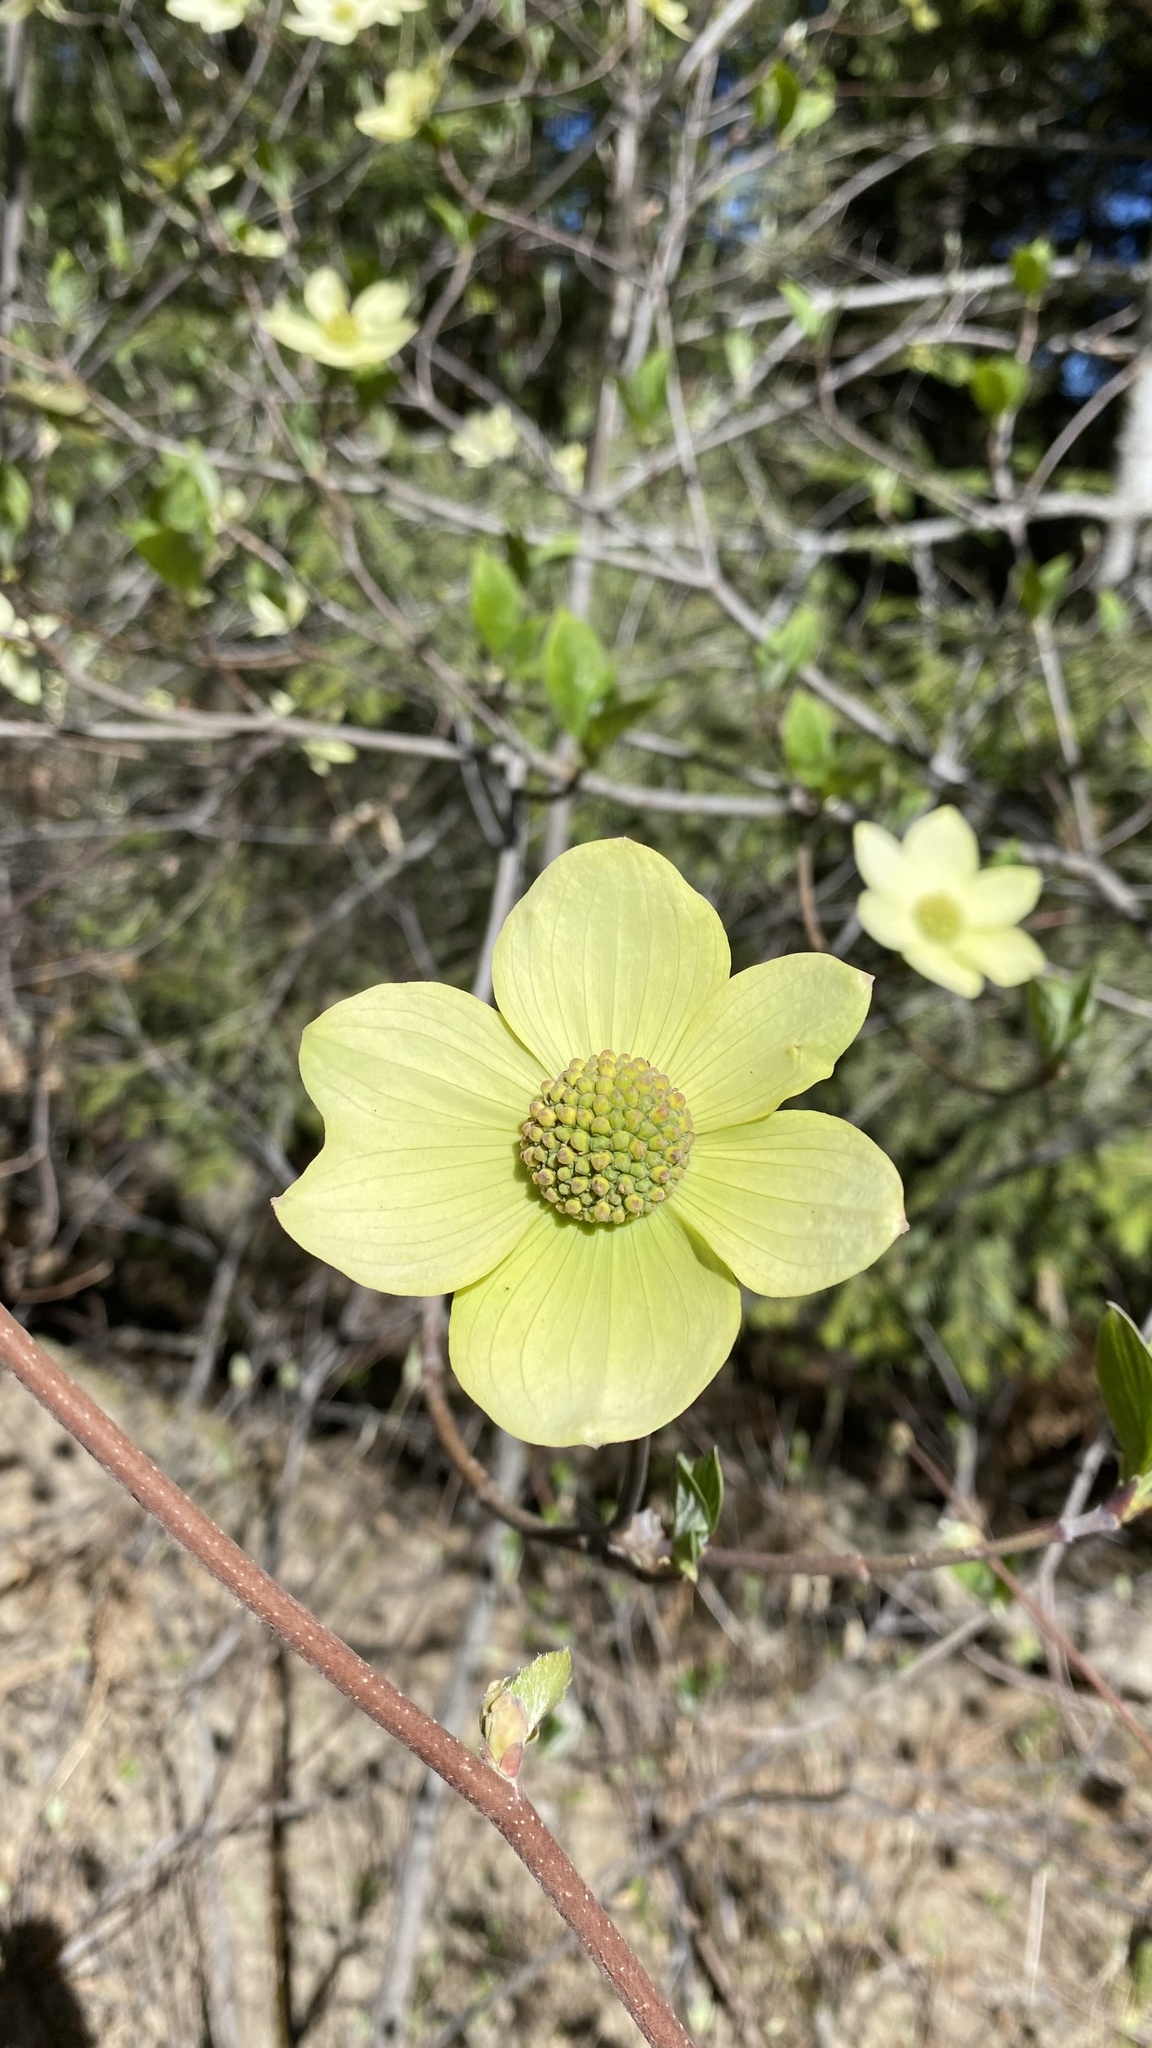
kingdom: Plantae
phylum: Tracheophyta
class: Magnoliopsida
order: Cornales
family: Cornaceae
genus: Cornus
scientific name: Cornus nuttallii
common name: Pacific dogwood
